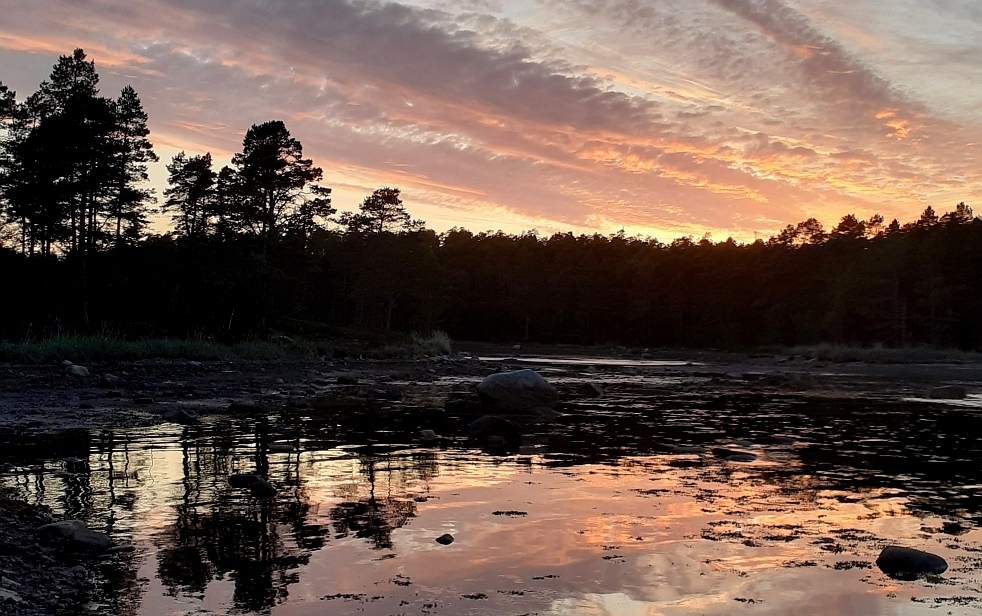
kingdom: Plantae
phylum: Tracheophyta
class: Pinopsida
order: Pinales
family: Pinaceae
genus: Pinus
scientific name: Pinus sylvestris
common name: Scots pine
